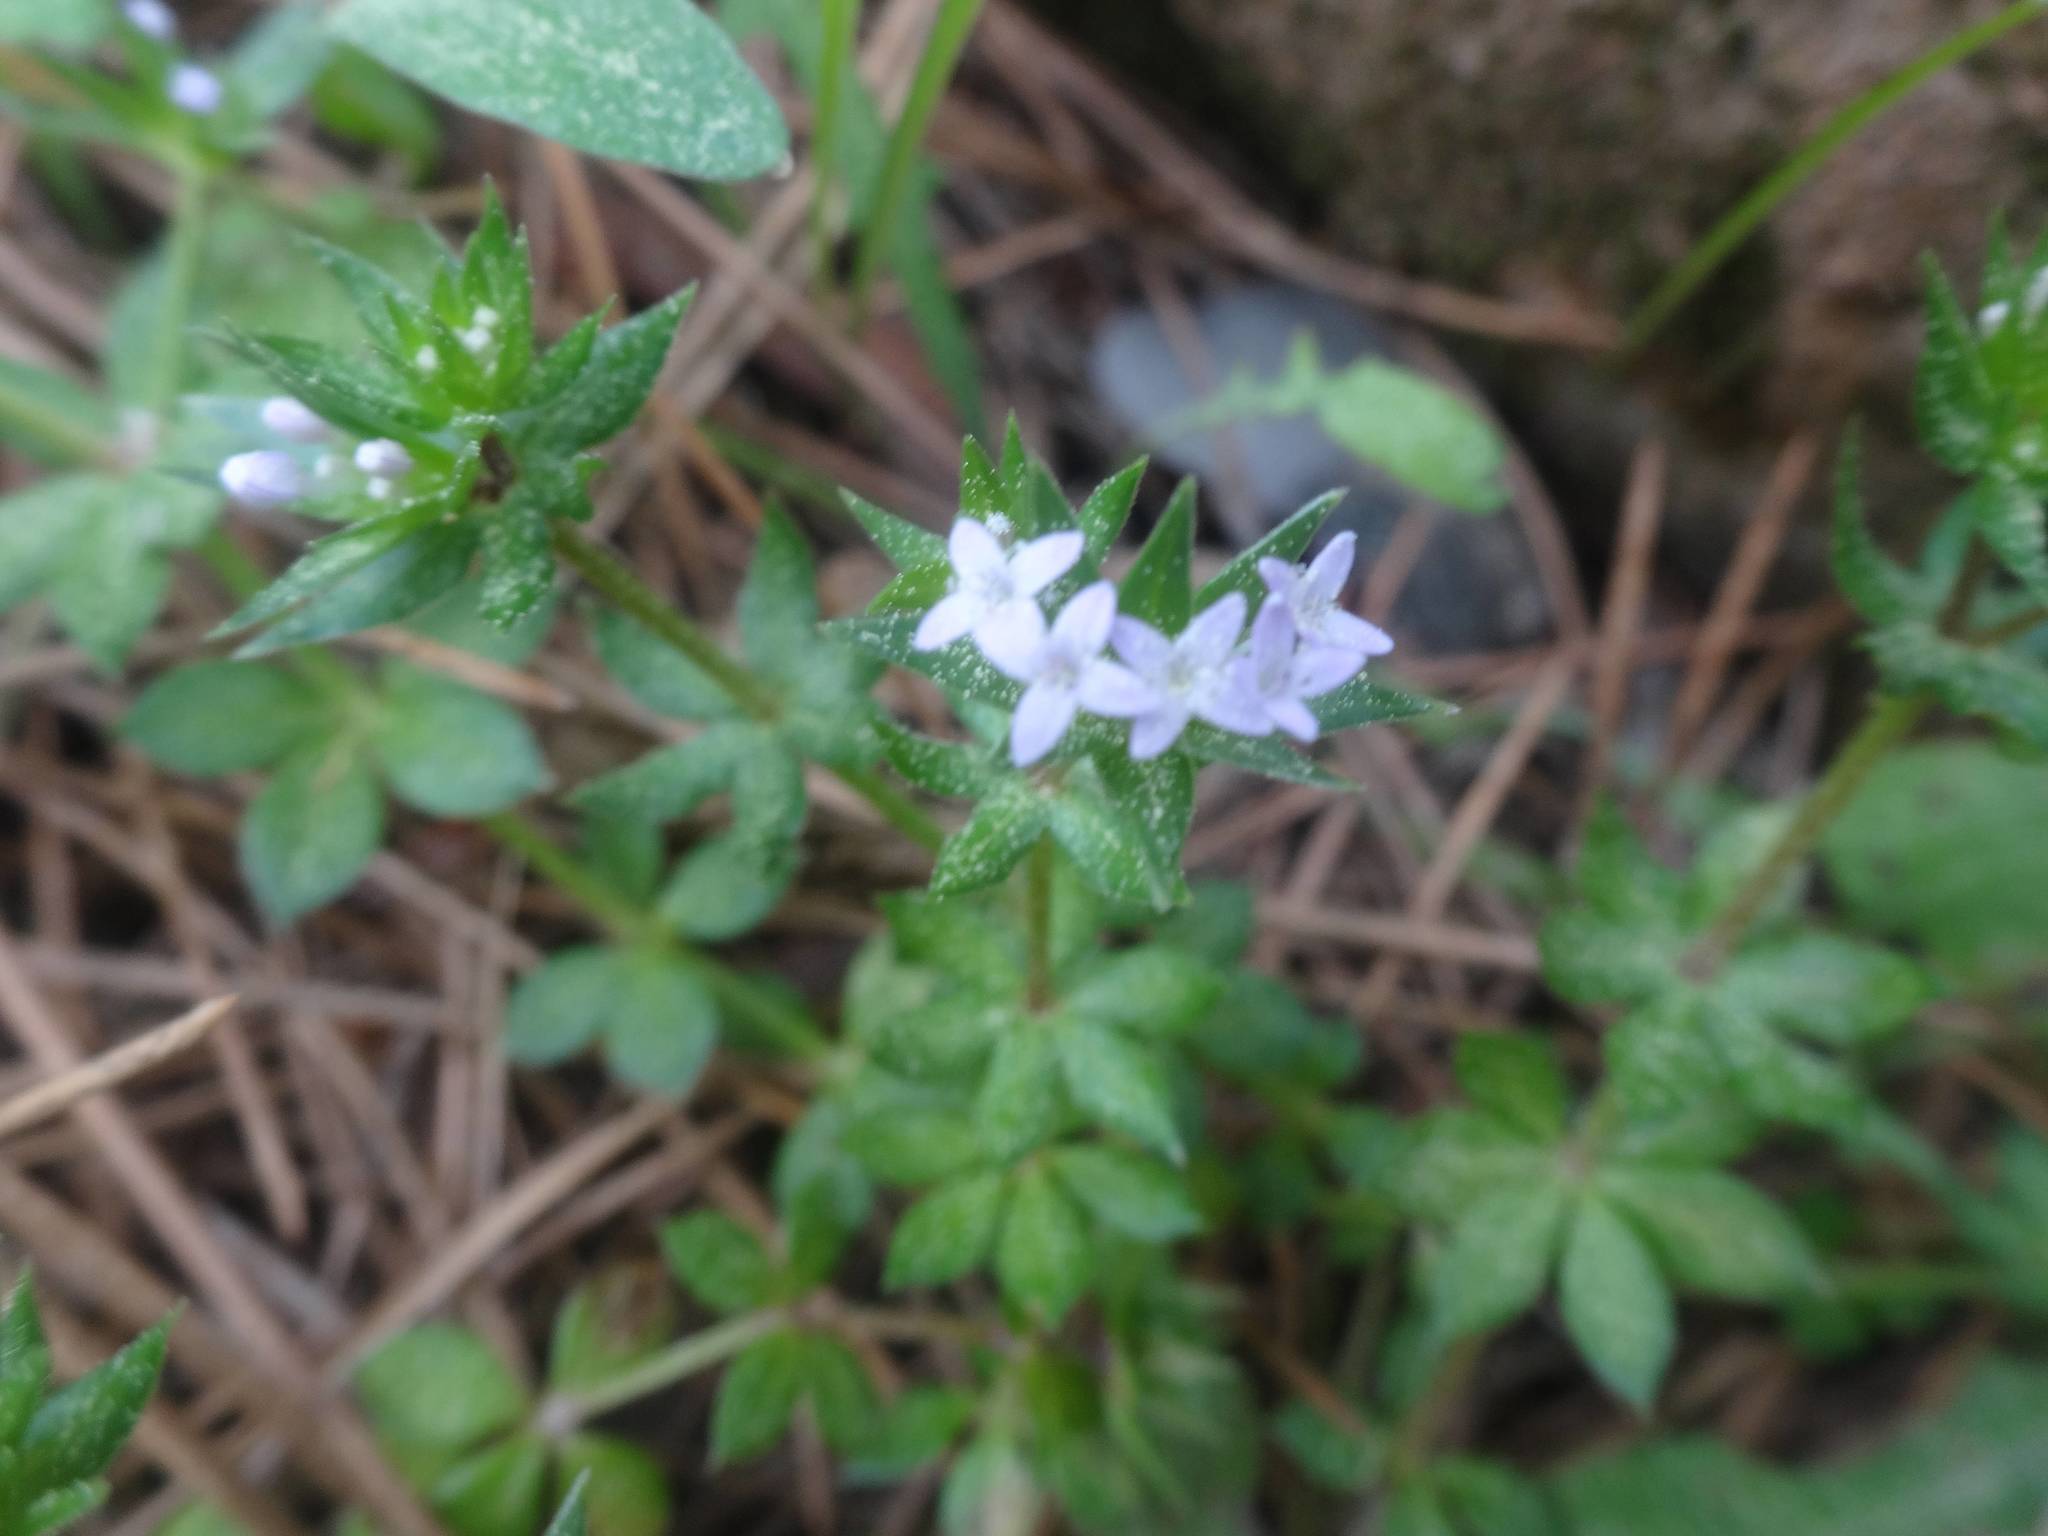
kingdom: Plantae
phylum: Tracheophyta
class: Magnoliopsida
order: Gentianales
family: Rubiaceae
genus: Sherardia
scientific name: Sherardia arvensis
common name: Field madder
